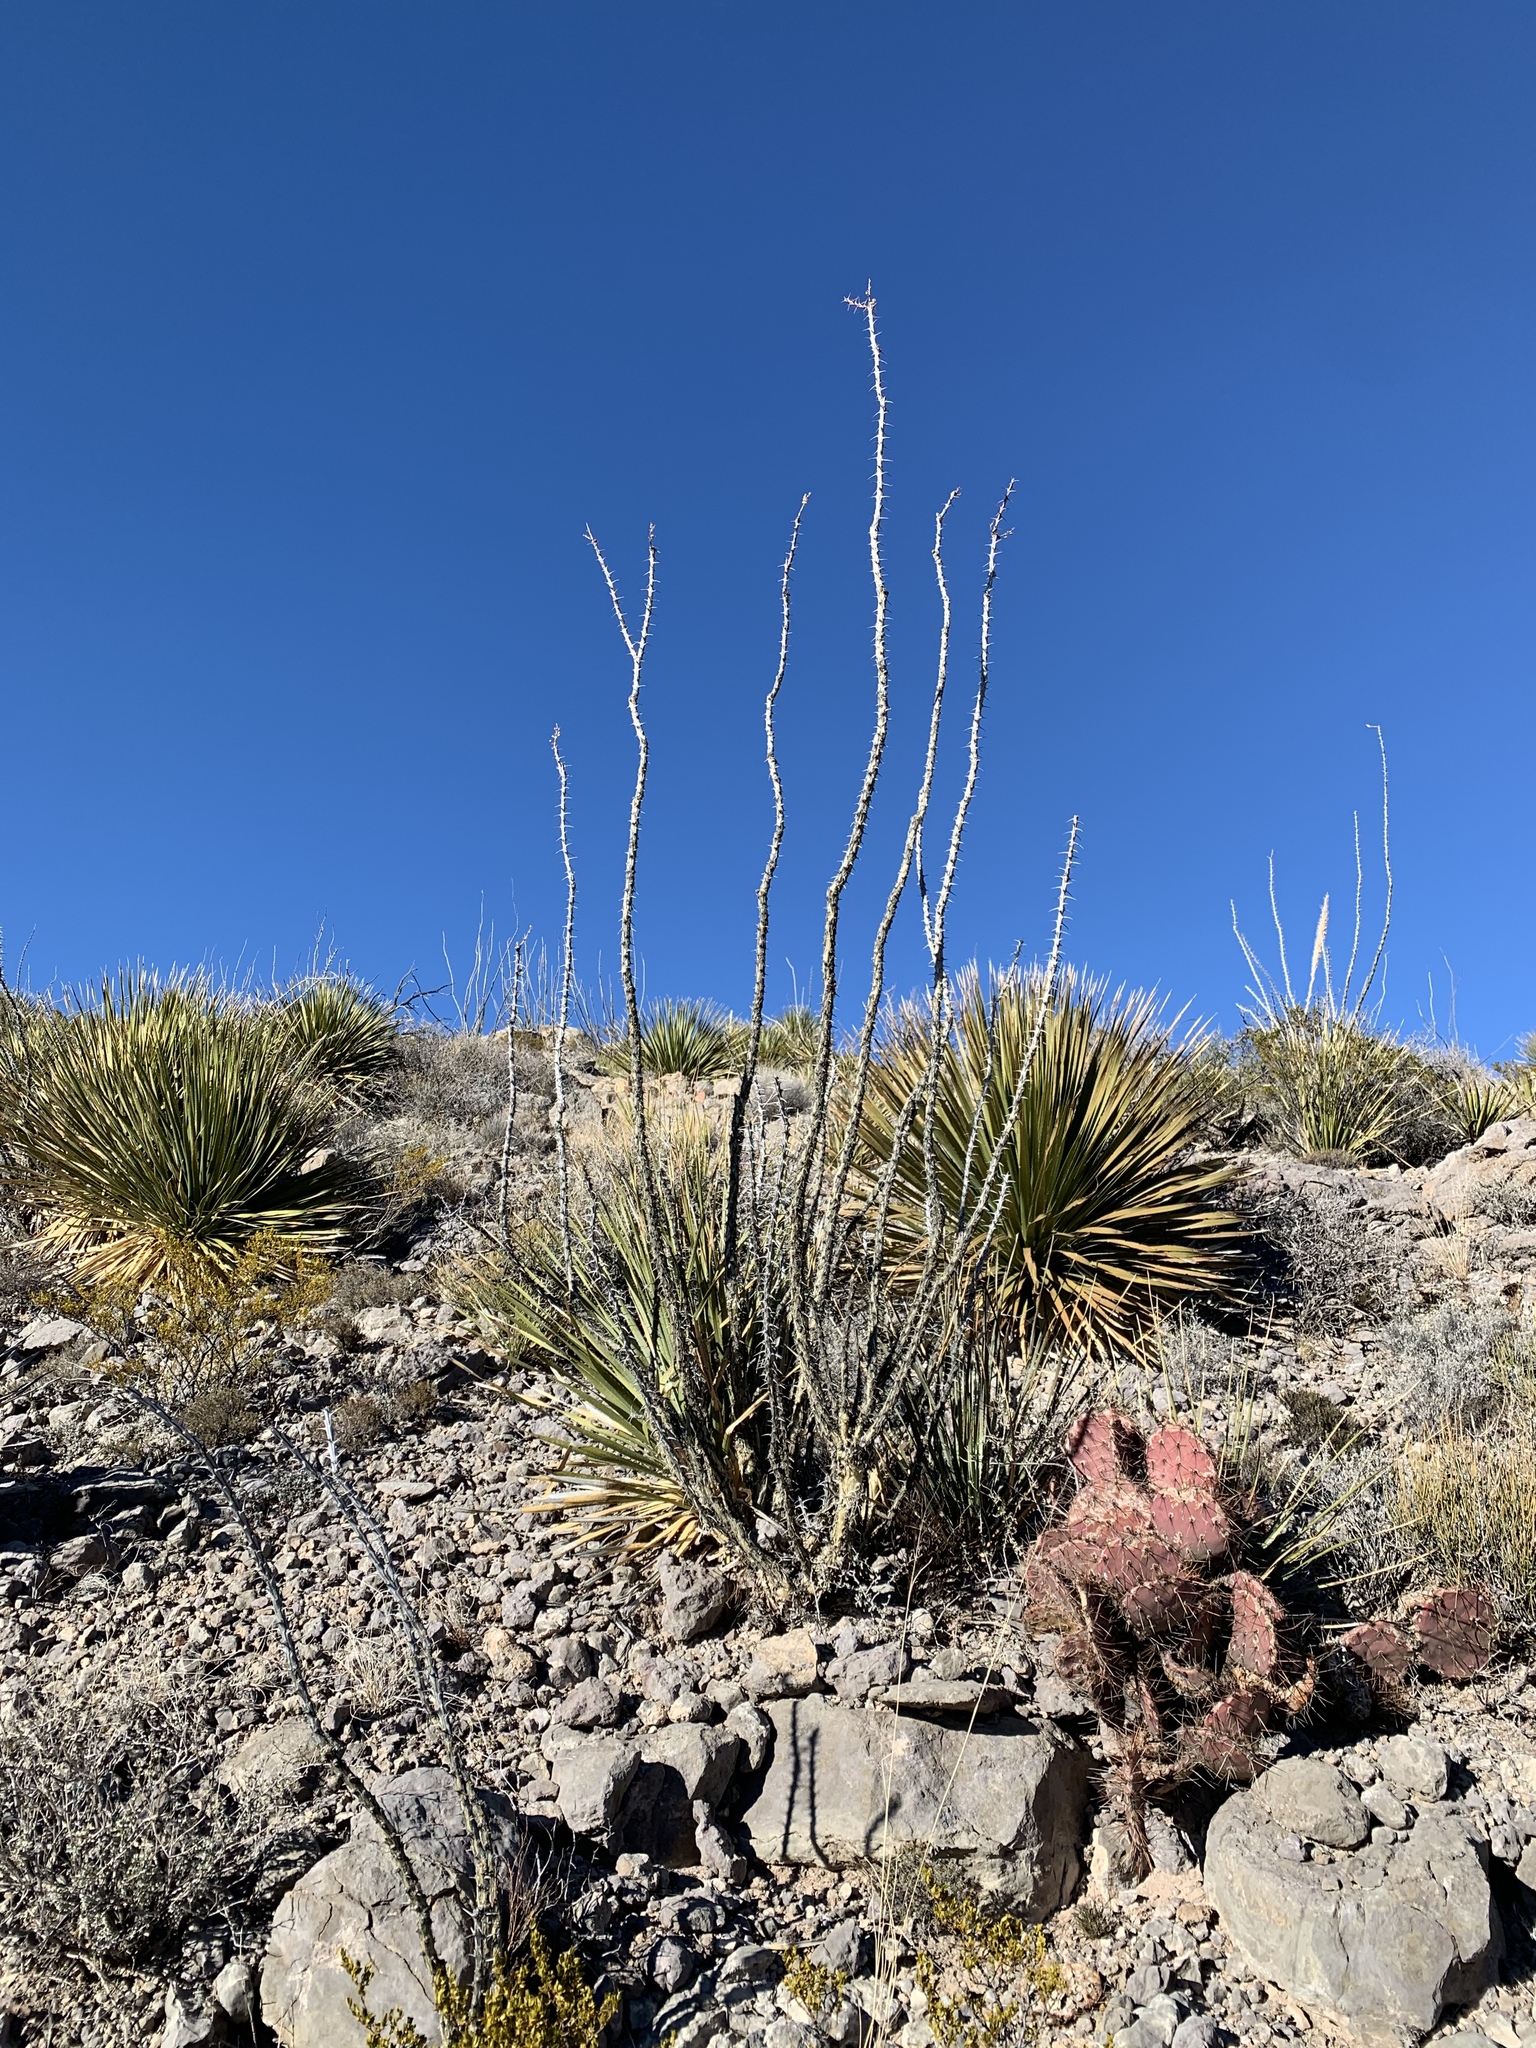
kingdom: Plantae
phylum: Tracheophyta
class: Liliopsida
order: Asparagales
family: Asparagaceae
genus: Dasylirion
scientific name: Dasylirion wheeleri
